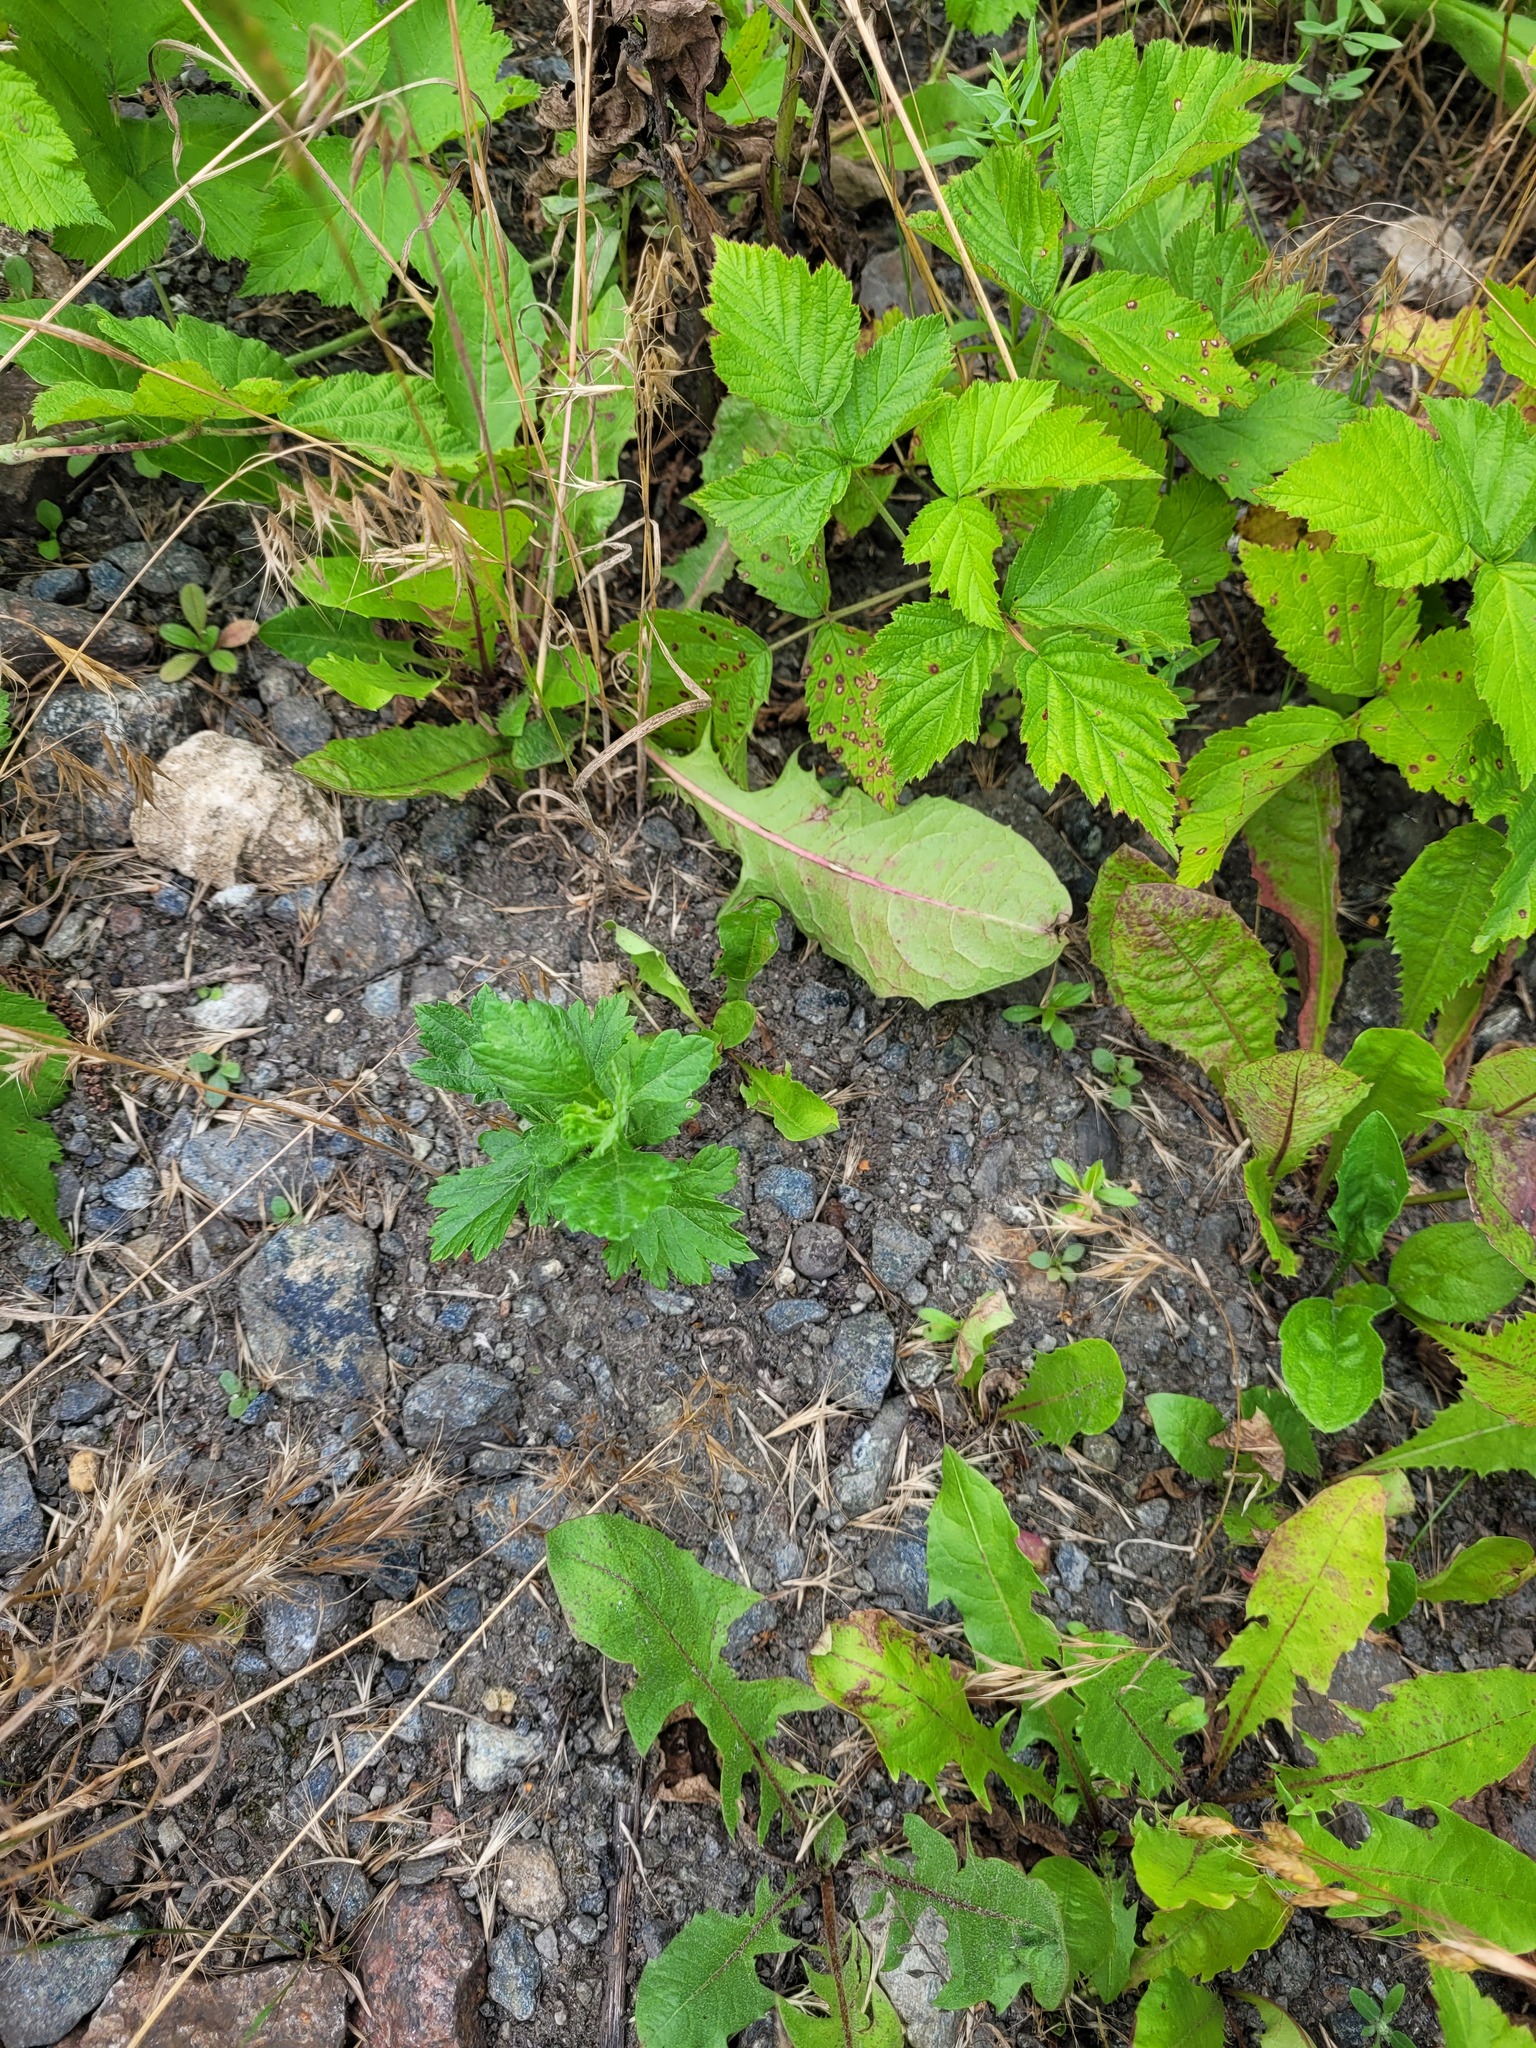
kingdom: Plantae
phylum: Tracheophyta
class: Magnoliopsida
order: Asterales
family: Asteraceae
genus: Artemisia
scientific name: Artemisia vulgaris
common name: Mugwort
